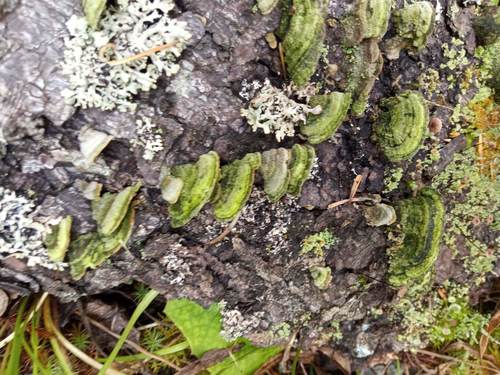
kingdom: Fungi
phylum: Basidiomycota
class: Agaricomycetes
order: Polyporales
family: Cerrenaceae
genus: Cerrena
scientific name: Cerrena unicolor
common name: Mossy maze polypore
